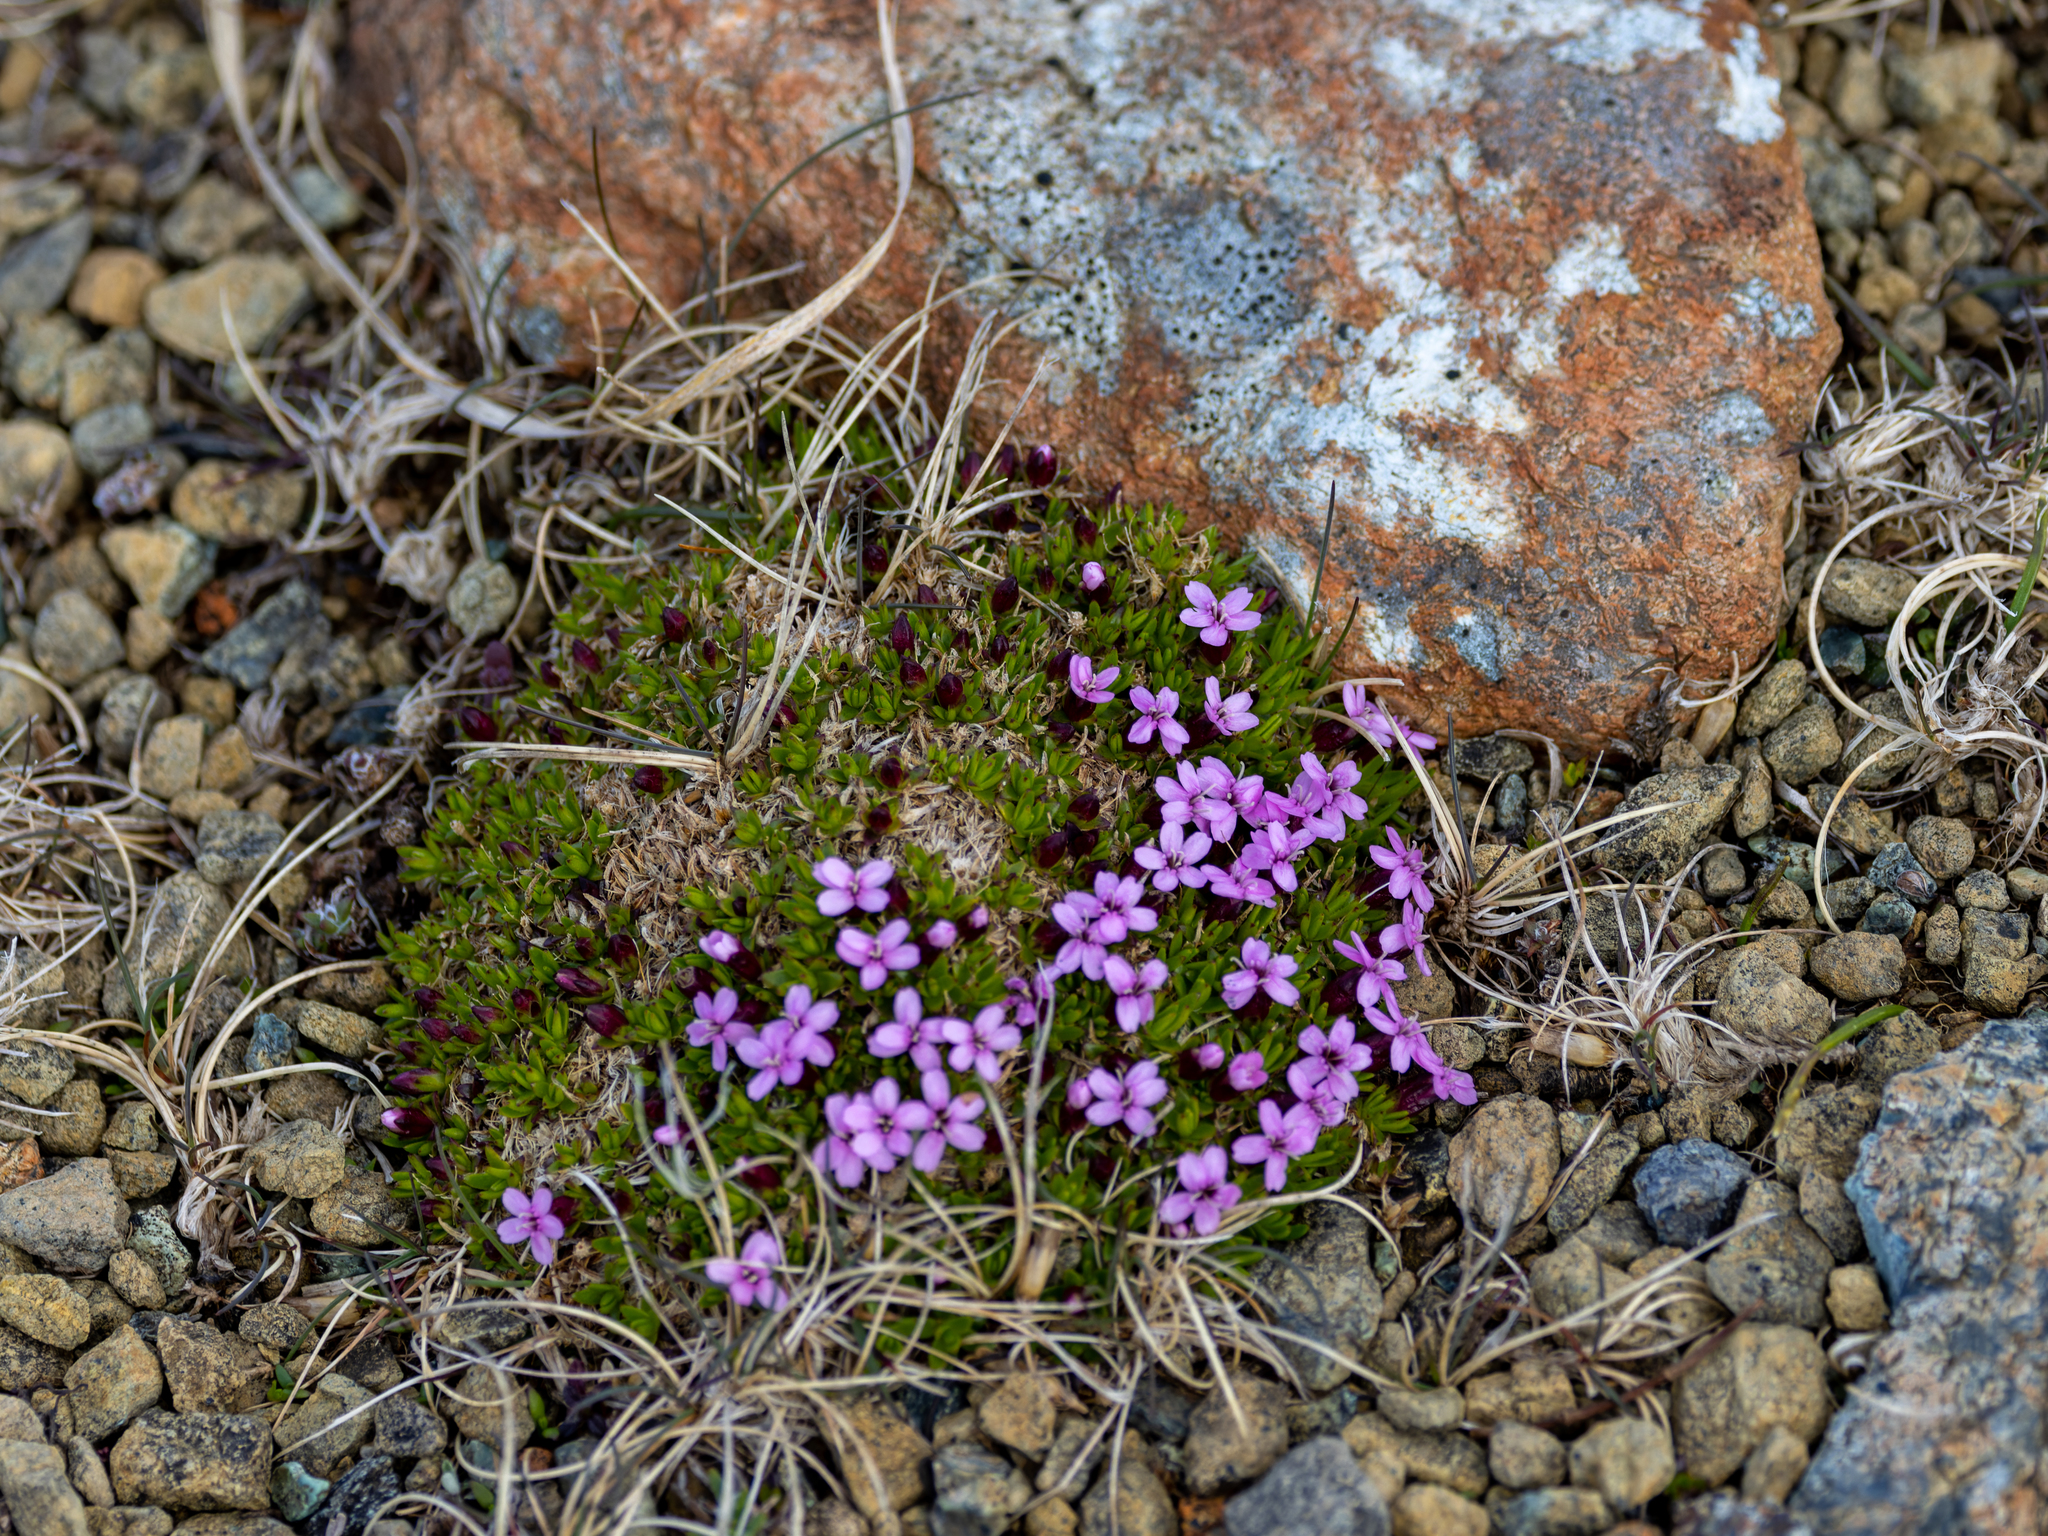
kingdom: Plantae
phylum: Tracheophyta
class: Magnoliopsida
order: Caryophyllales
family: Caryophyllaceae
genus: Silene
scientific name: Silene acaulis
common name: Moss campion
